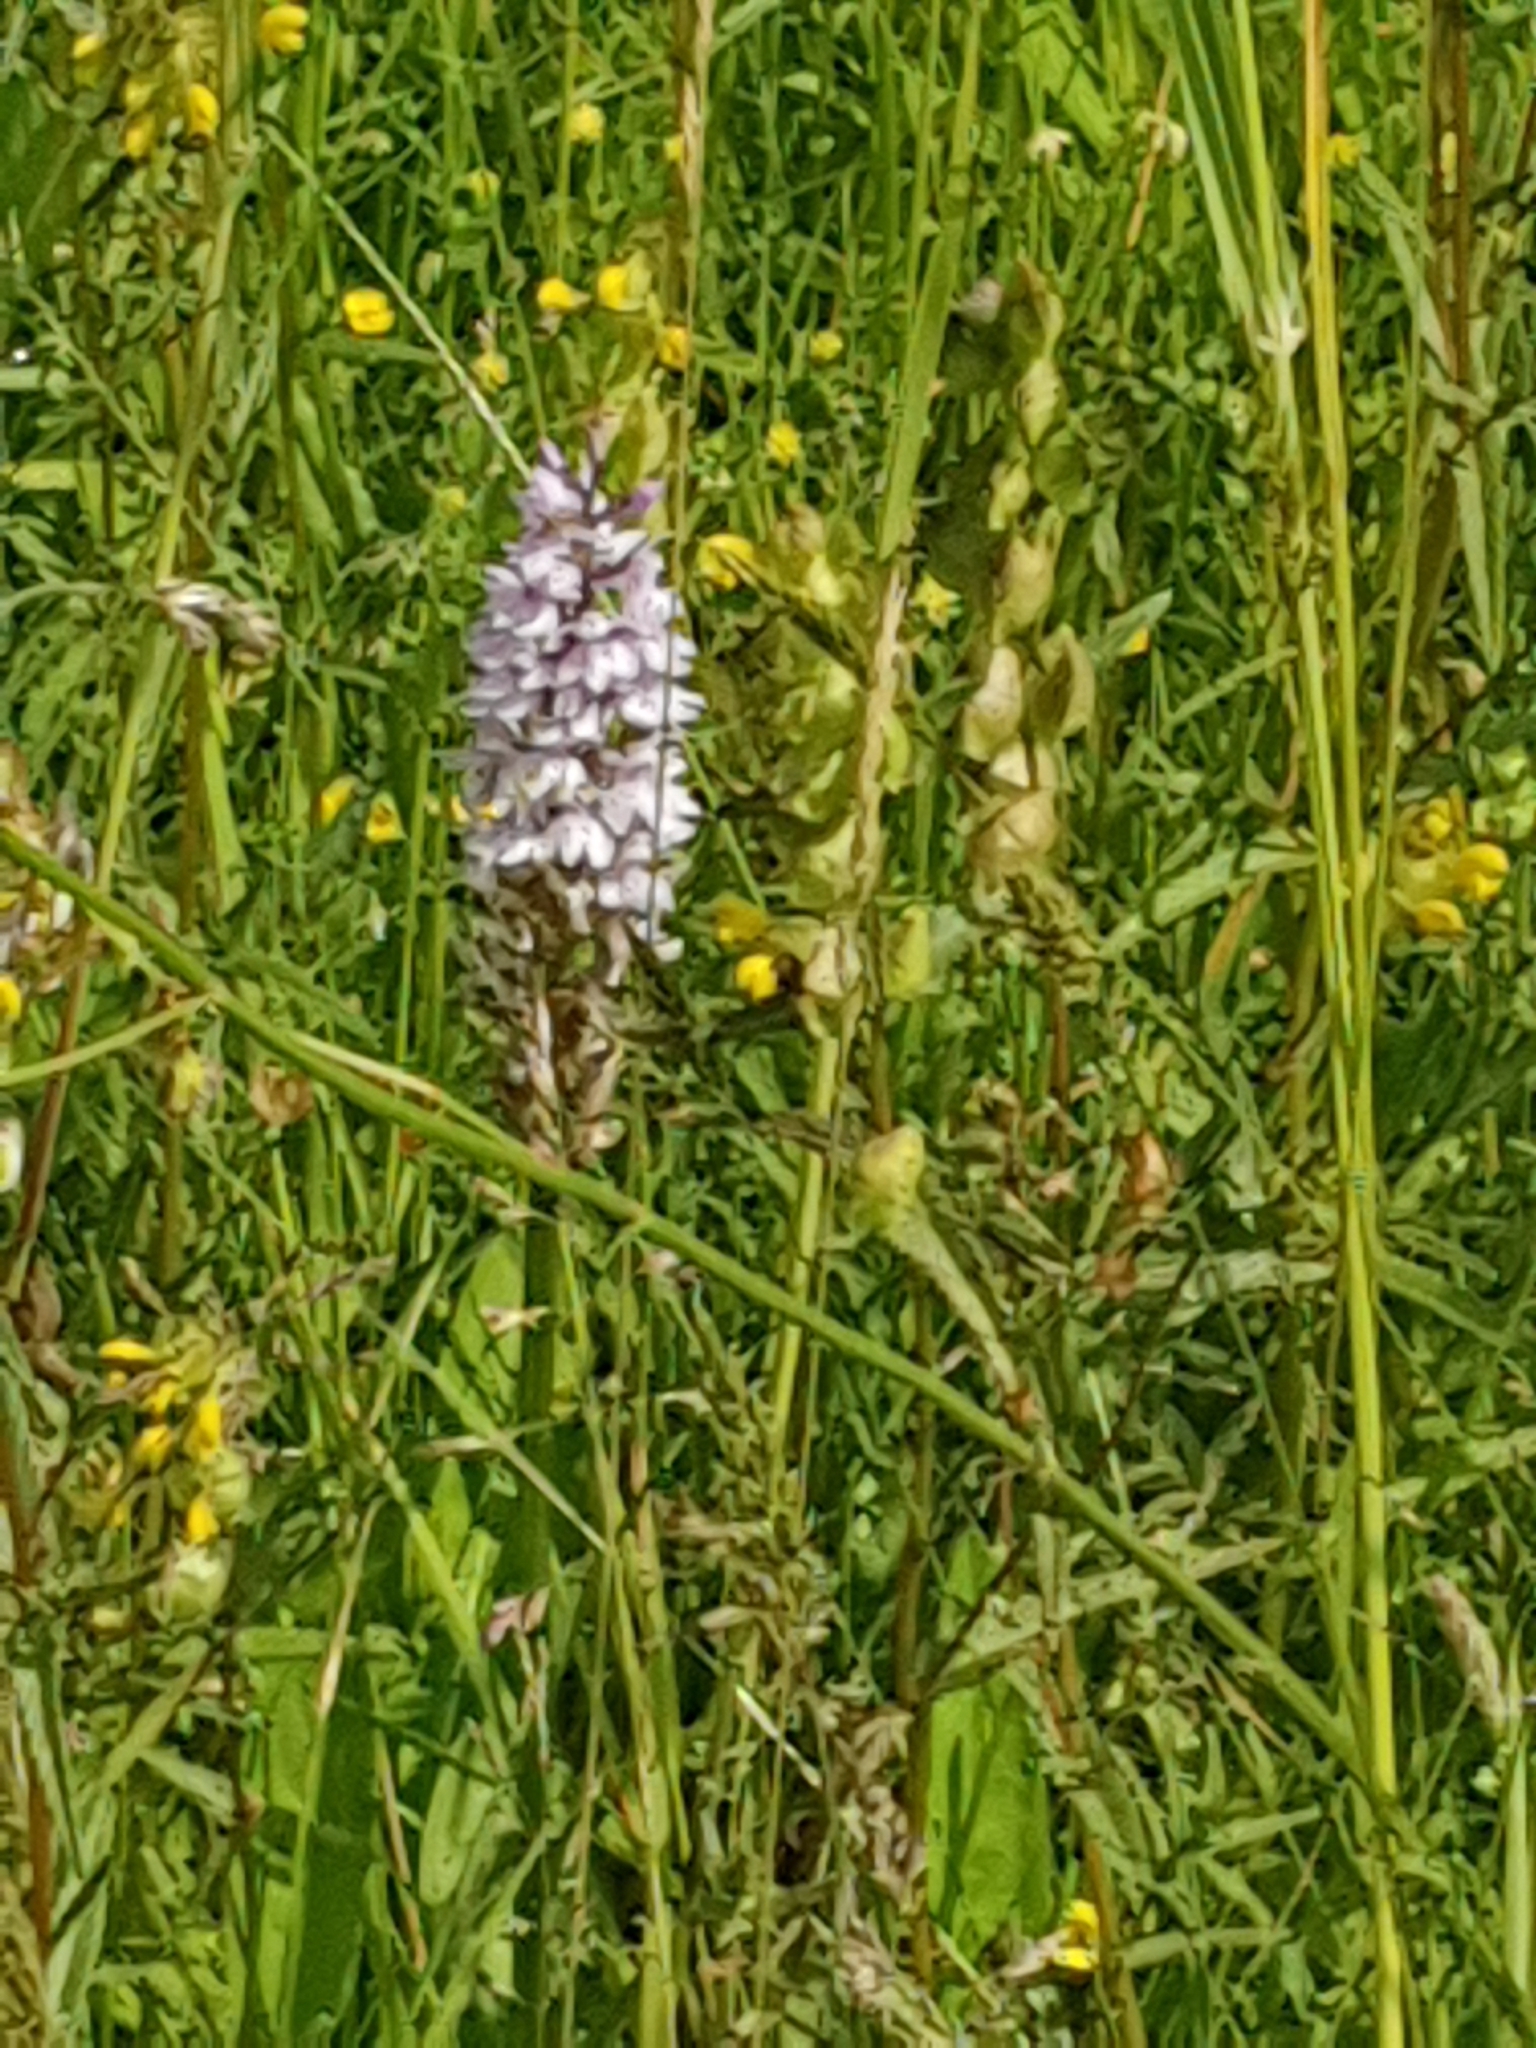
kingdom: Plantae
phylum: Tracheophyta
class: Liliopsida
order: Asparagales
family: Orchidaceae
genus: Dactylorhiza
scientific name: Dactylorhiza maculata
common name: Heath spotted-orchid
